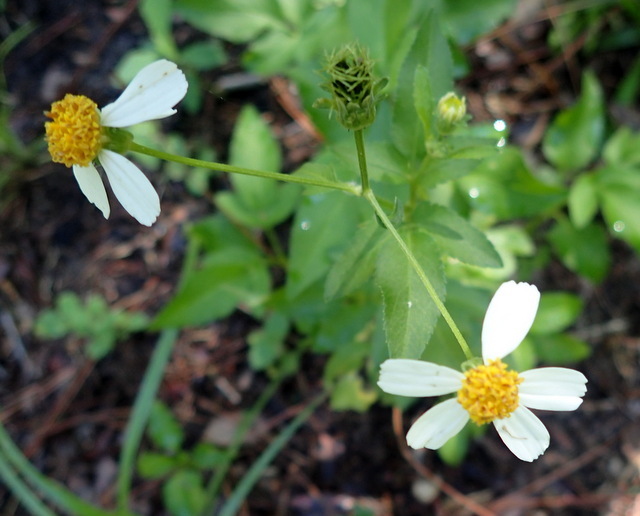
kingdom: Plantae
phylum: Tracheophyta
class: Magnoliopsida
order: Asterales
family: Asteraceae
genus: Bidens
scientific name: Bidens alba
